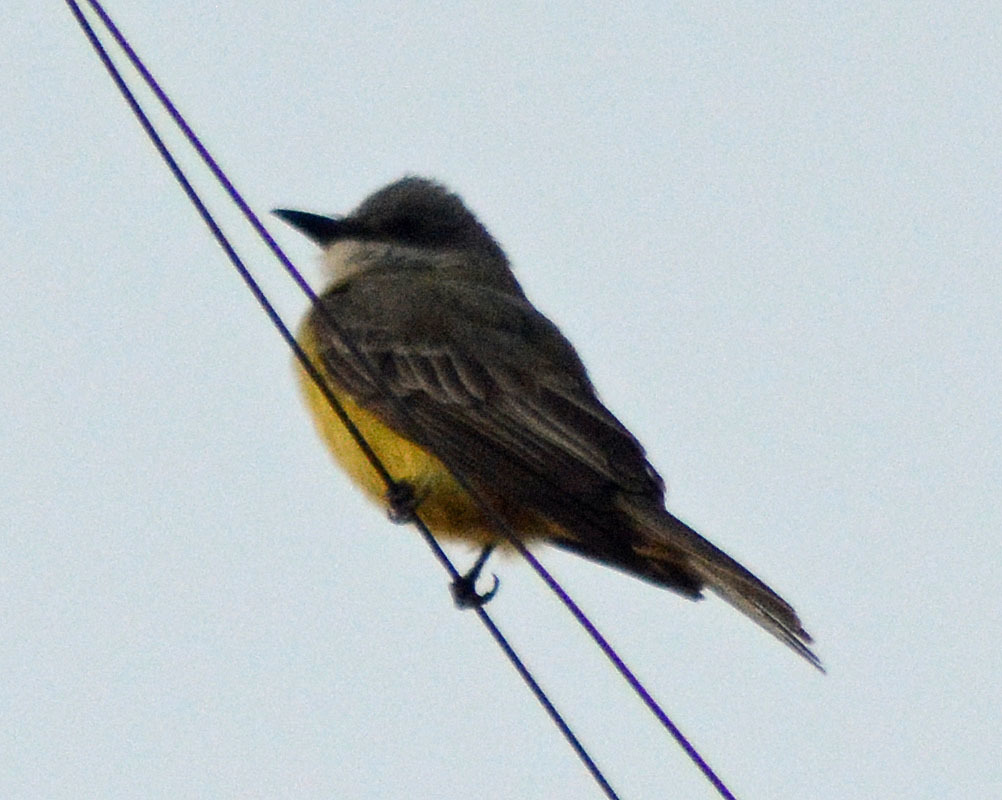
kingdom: Animalia
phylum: Chordata
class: Aves
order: Passeriformes
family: Tyrannidae
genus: Tyrannus
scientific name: Tyrannus melancholicus
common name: Tropical kingbird
